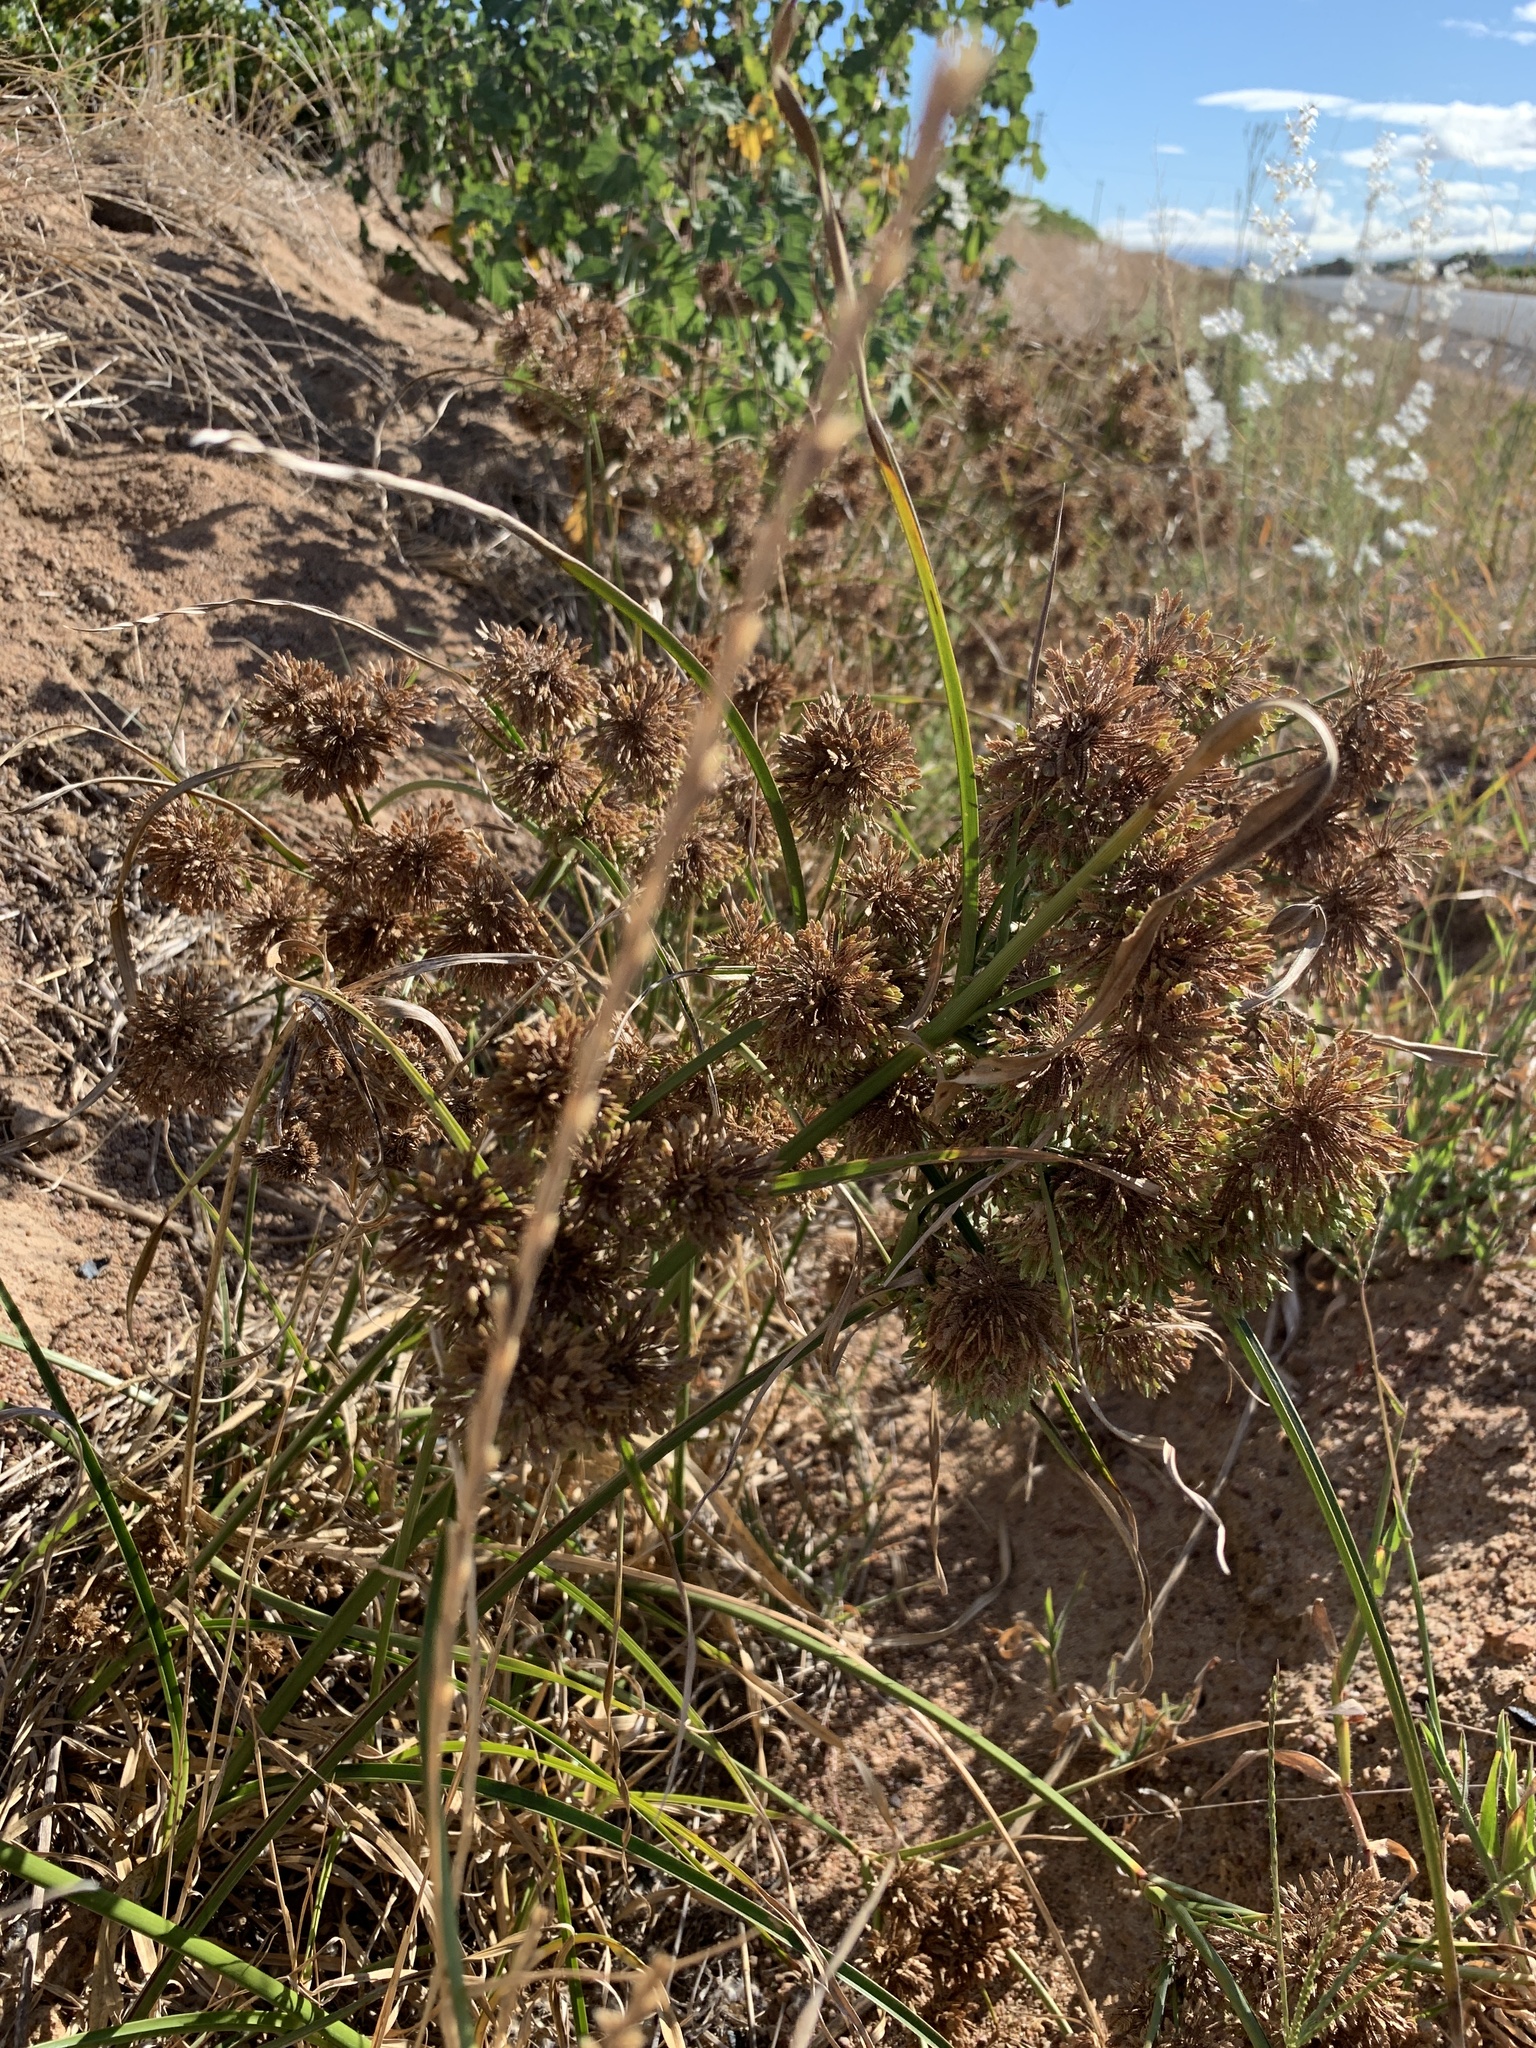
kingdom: Plantae
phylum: Tracheophyta
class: Liliopsida
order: Poales
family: Cyperaceae
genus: Cyperus
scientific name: Cyperus eragrostis
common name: Tall flatsedge
